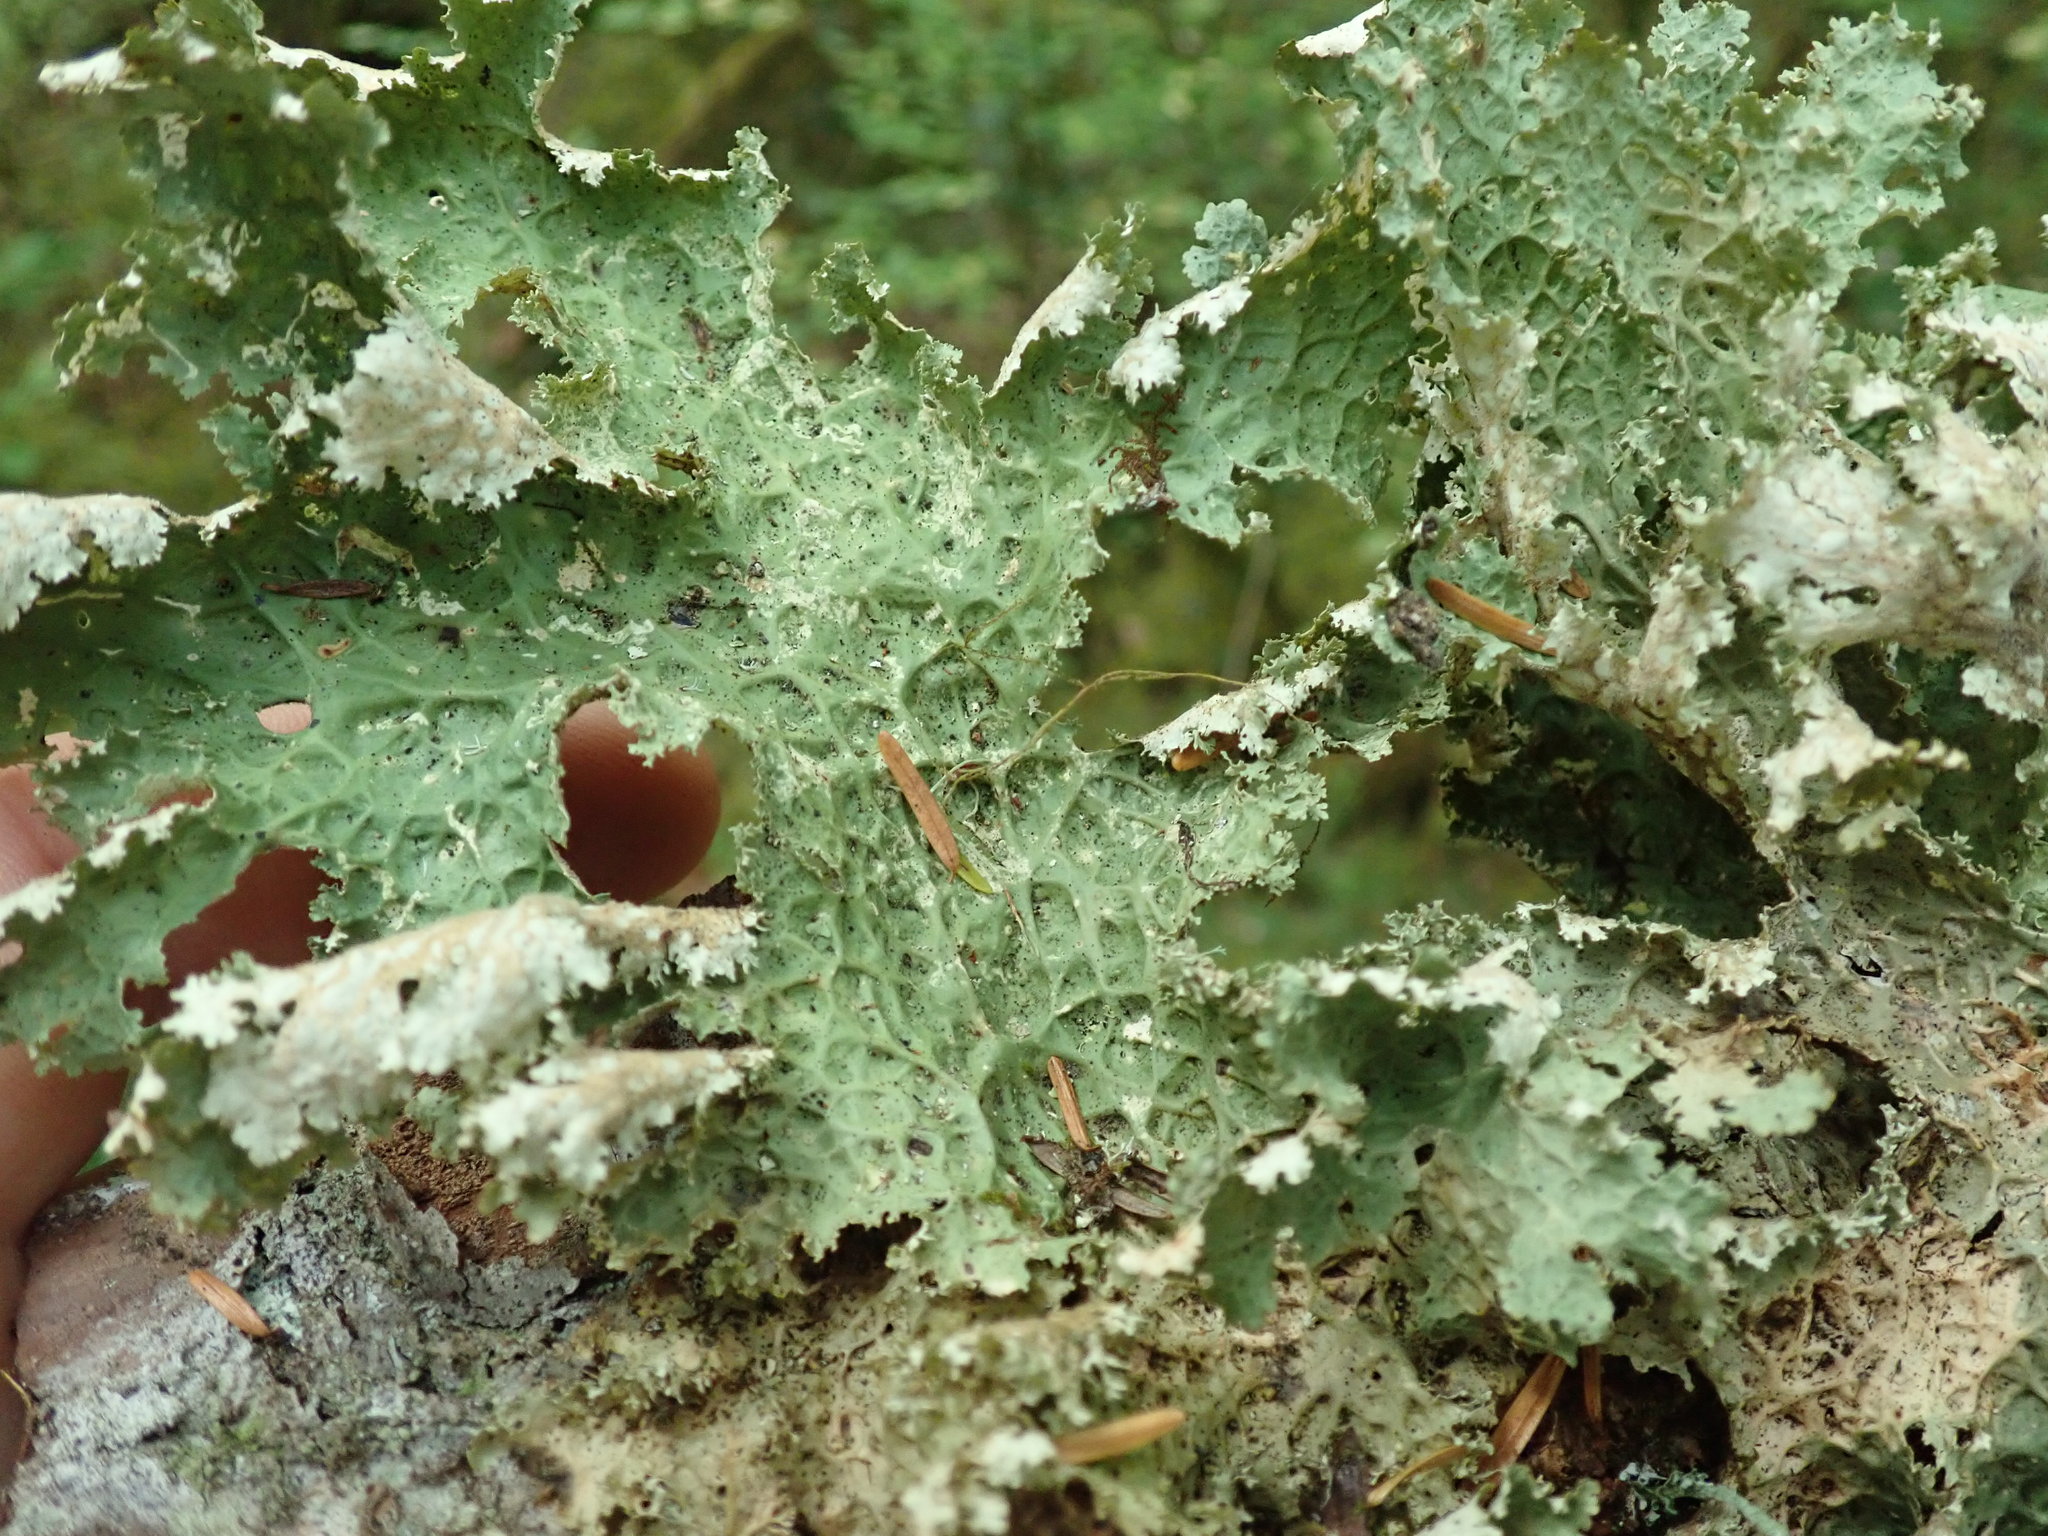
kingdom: Fungi
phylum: Ascomycota
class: Lecanoromycetes
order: Peltigerales
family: Lobariaceae
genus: Lobaria
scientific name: Lobaria oregana
